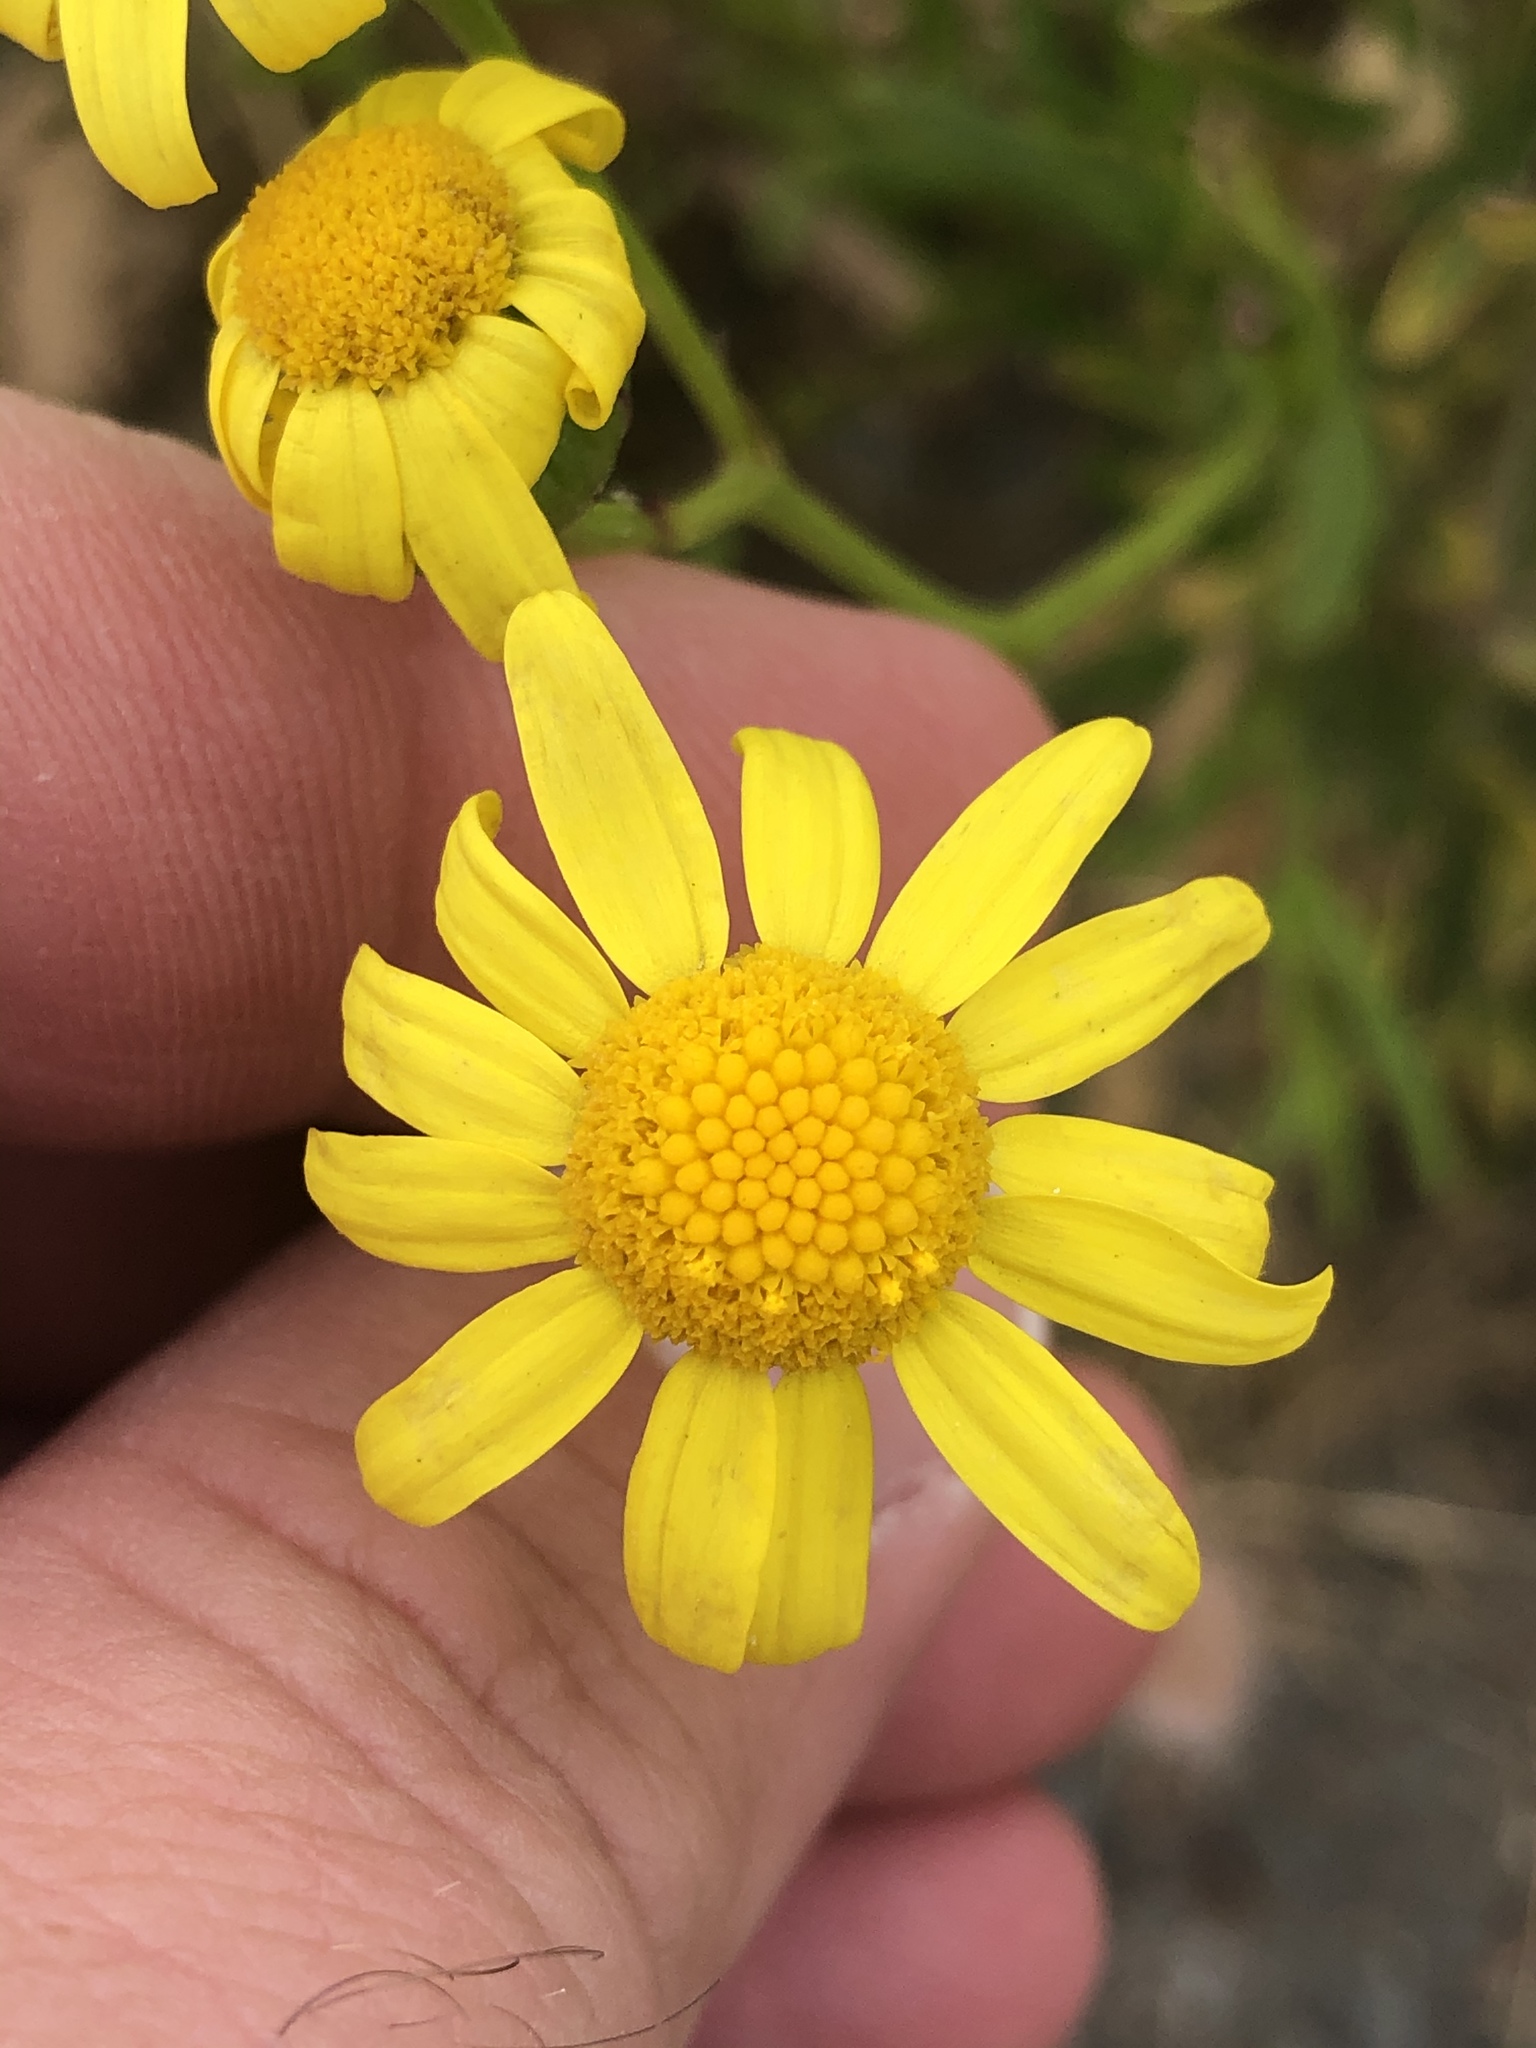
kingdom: Plantae
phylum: Tracheophyta
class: Magnoliopsida
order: Asterales
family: Asteraceae
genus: Senecio
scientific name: Senecio skirrhodon
